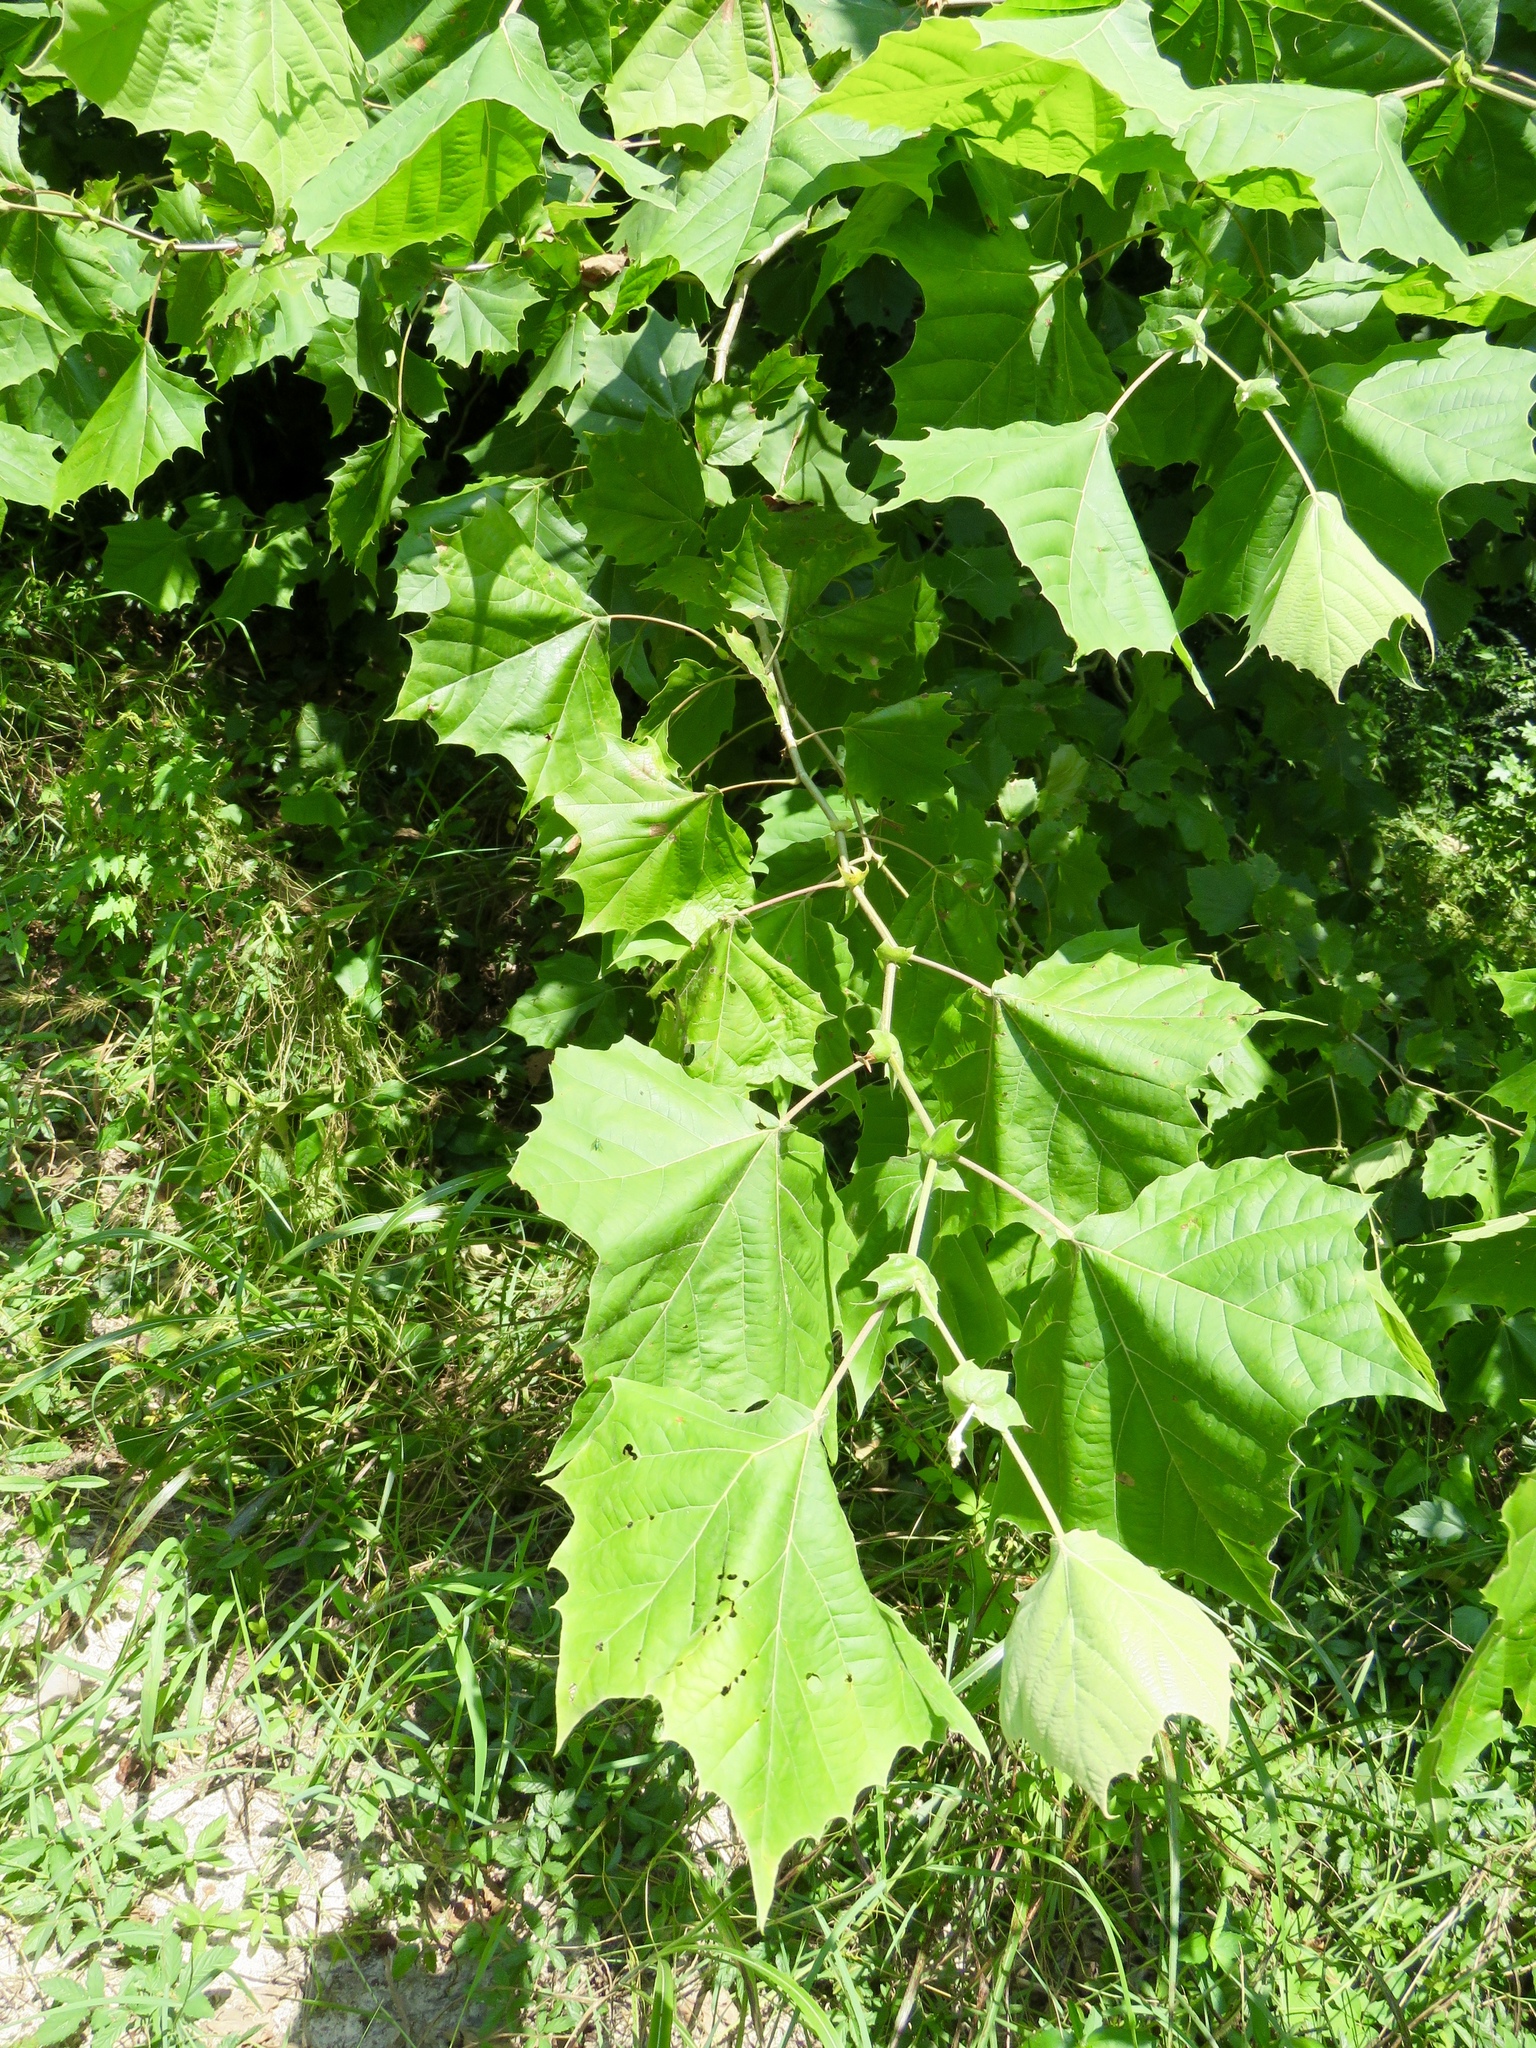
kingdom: Plantae
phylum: Tracheophyta
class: Magnoliopsida
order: Proteales
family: Platanaceae
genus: Platanus
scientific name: Platanus occidentalis
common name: American sycamore
